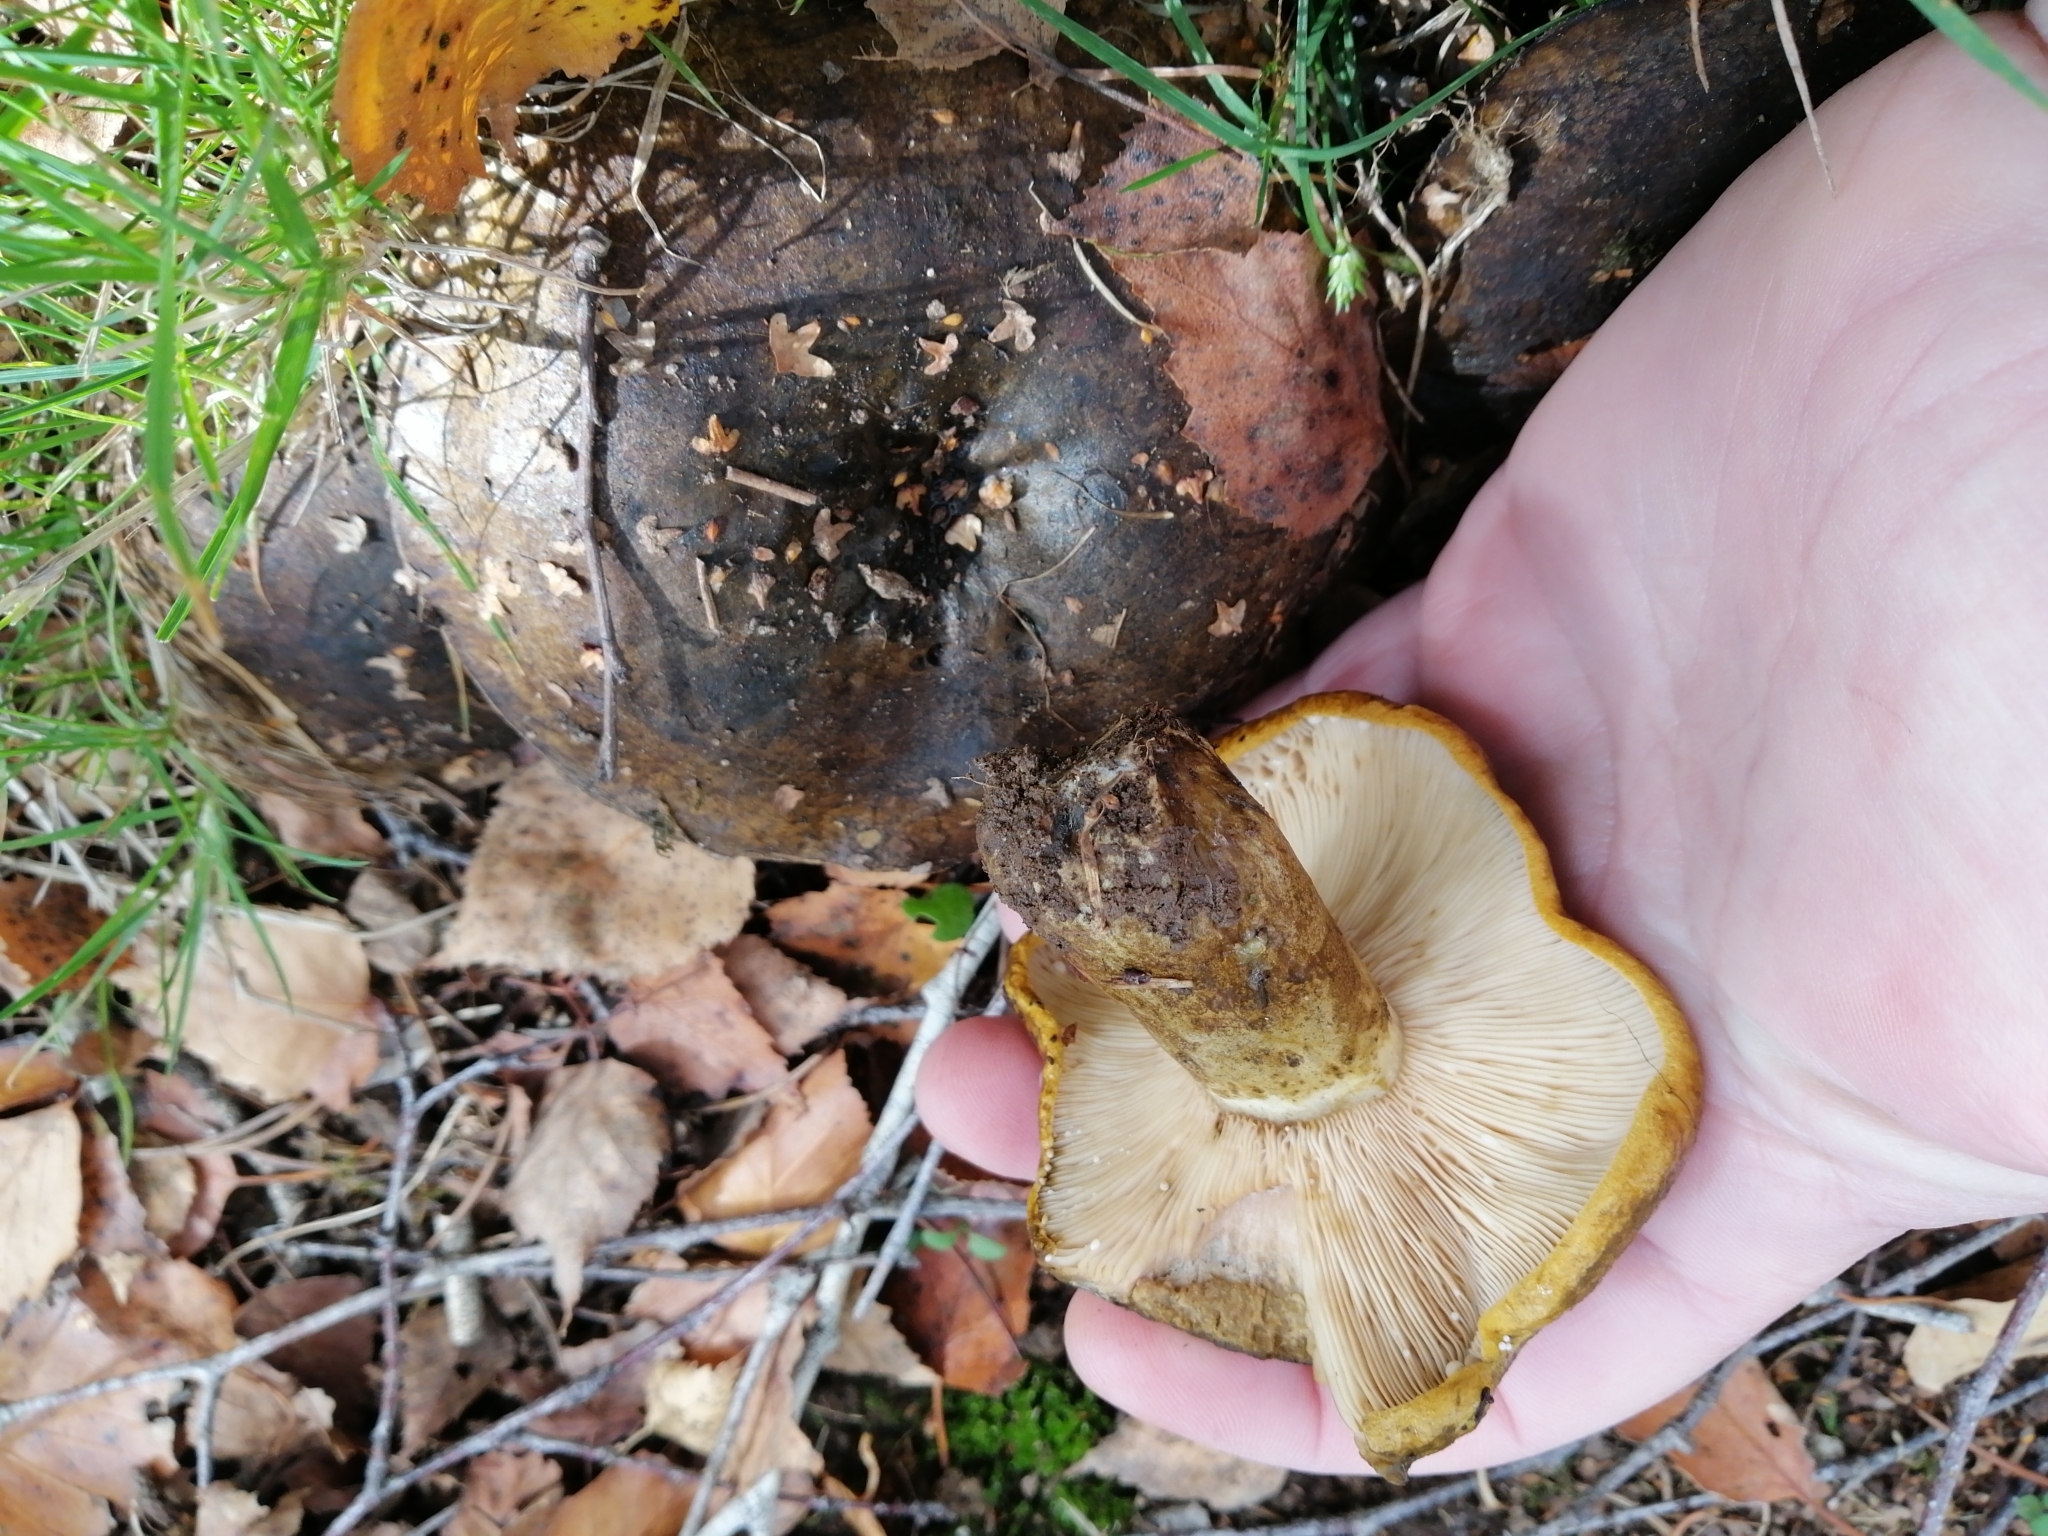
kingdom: Fungi
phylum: Basidiomycota
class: Agaricomycetes
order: Russulales
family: Russulaceae
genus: Lactarius
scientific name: Lactarius turpis
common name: Ugly milk-cap
